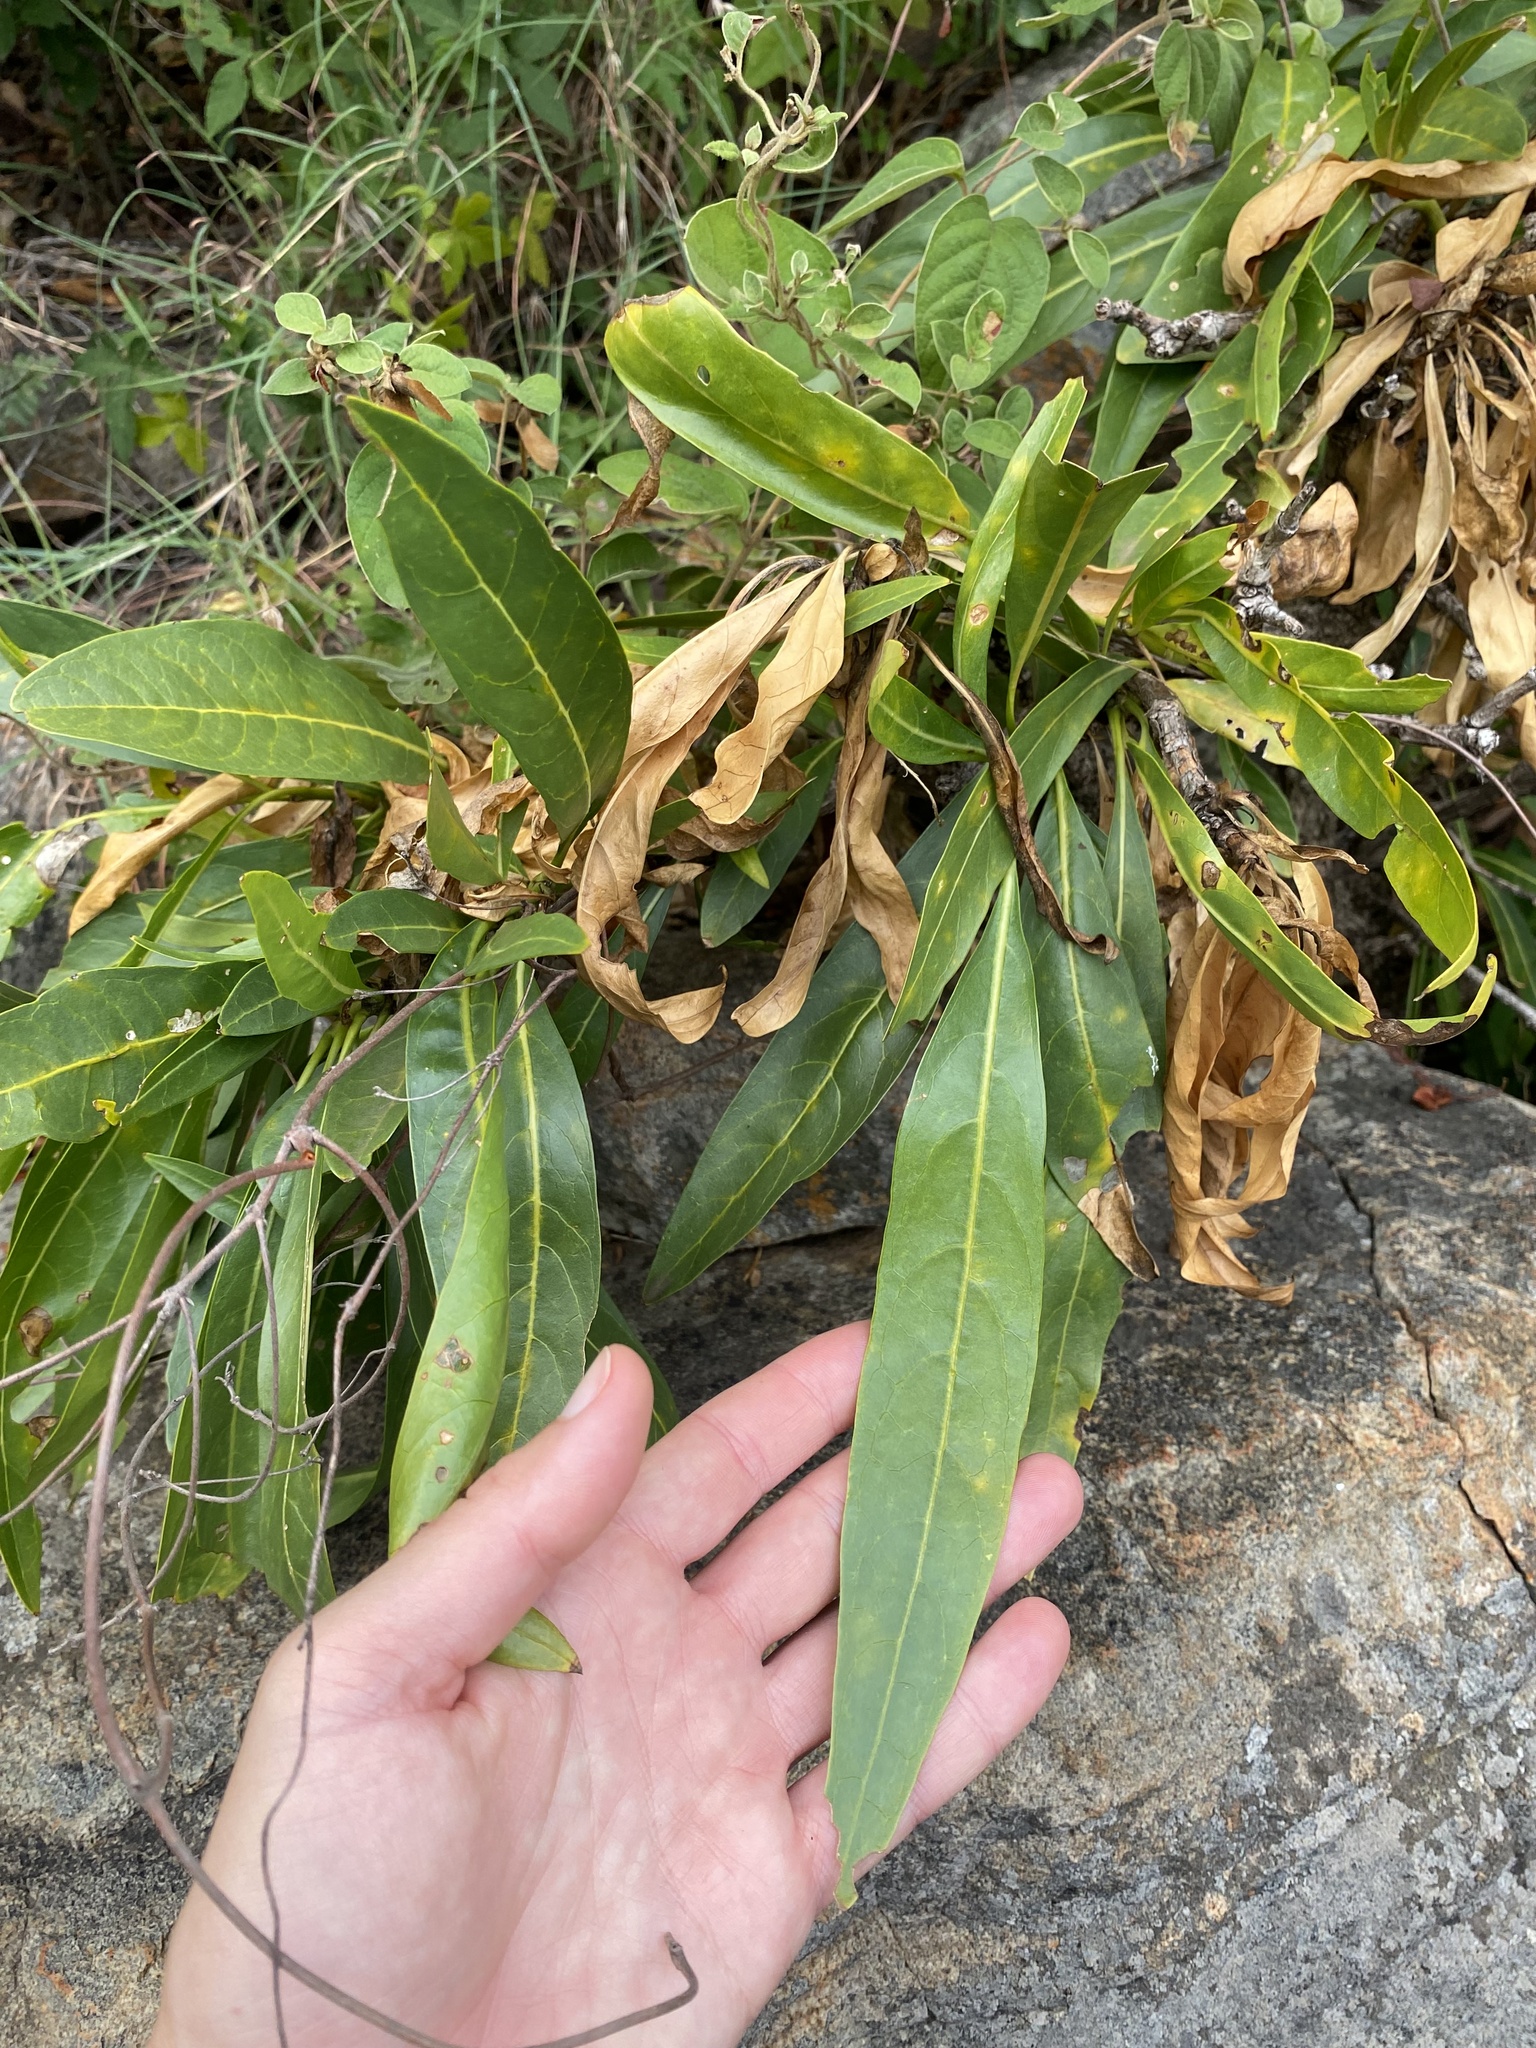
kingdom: Plantae
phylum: Tracheophyta
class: Magnoliopsida
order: Gentianales
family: Rubiaceae
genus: Pavetta
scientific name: Pavetta edentula
